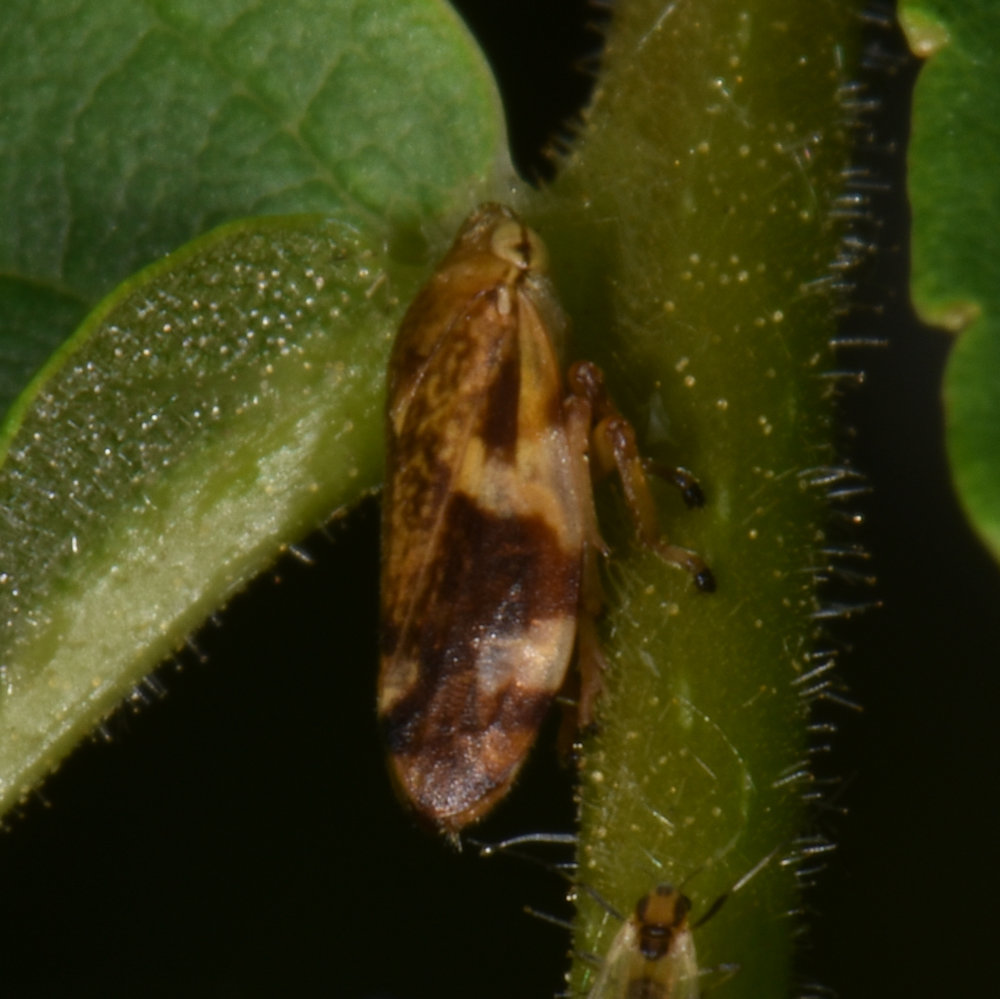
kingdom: Animalia
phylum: Arthropoda
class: Insecta
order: Hemiptera
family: Aphrophoridae
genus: Philaenus
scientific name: Philaenus spumarius
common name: Meadow spittlebug
